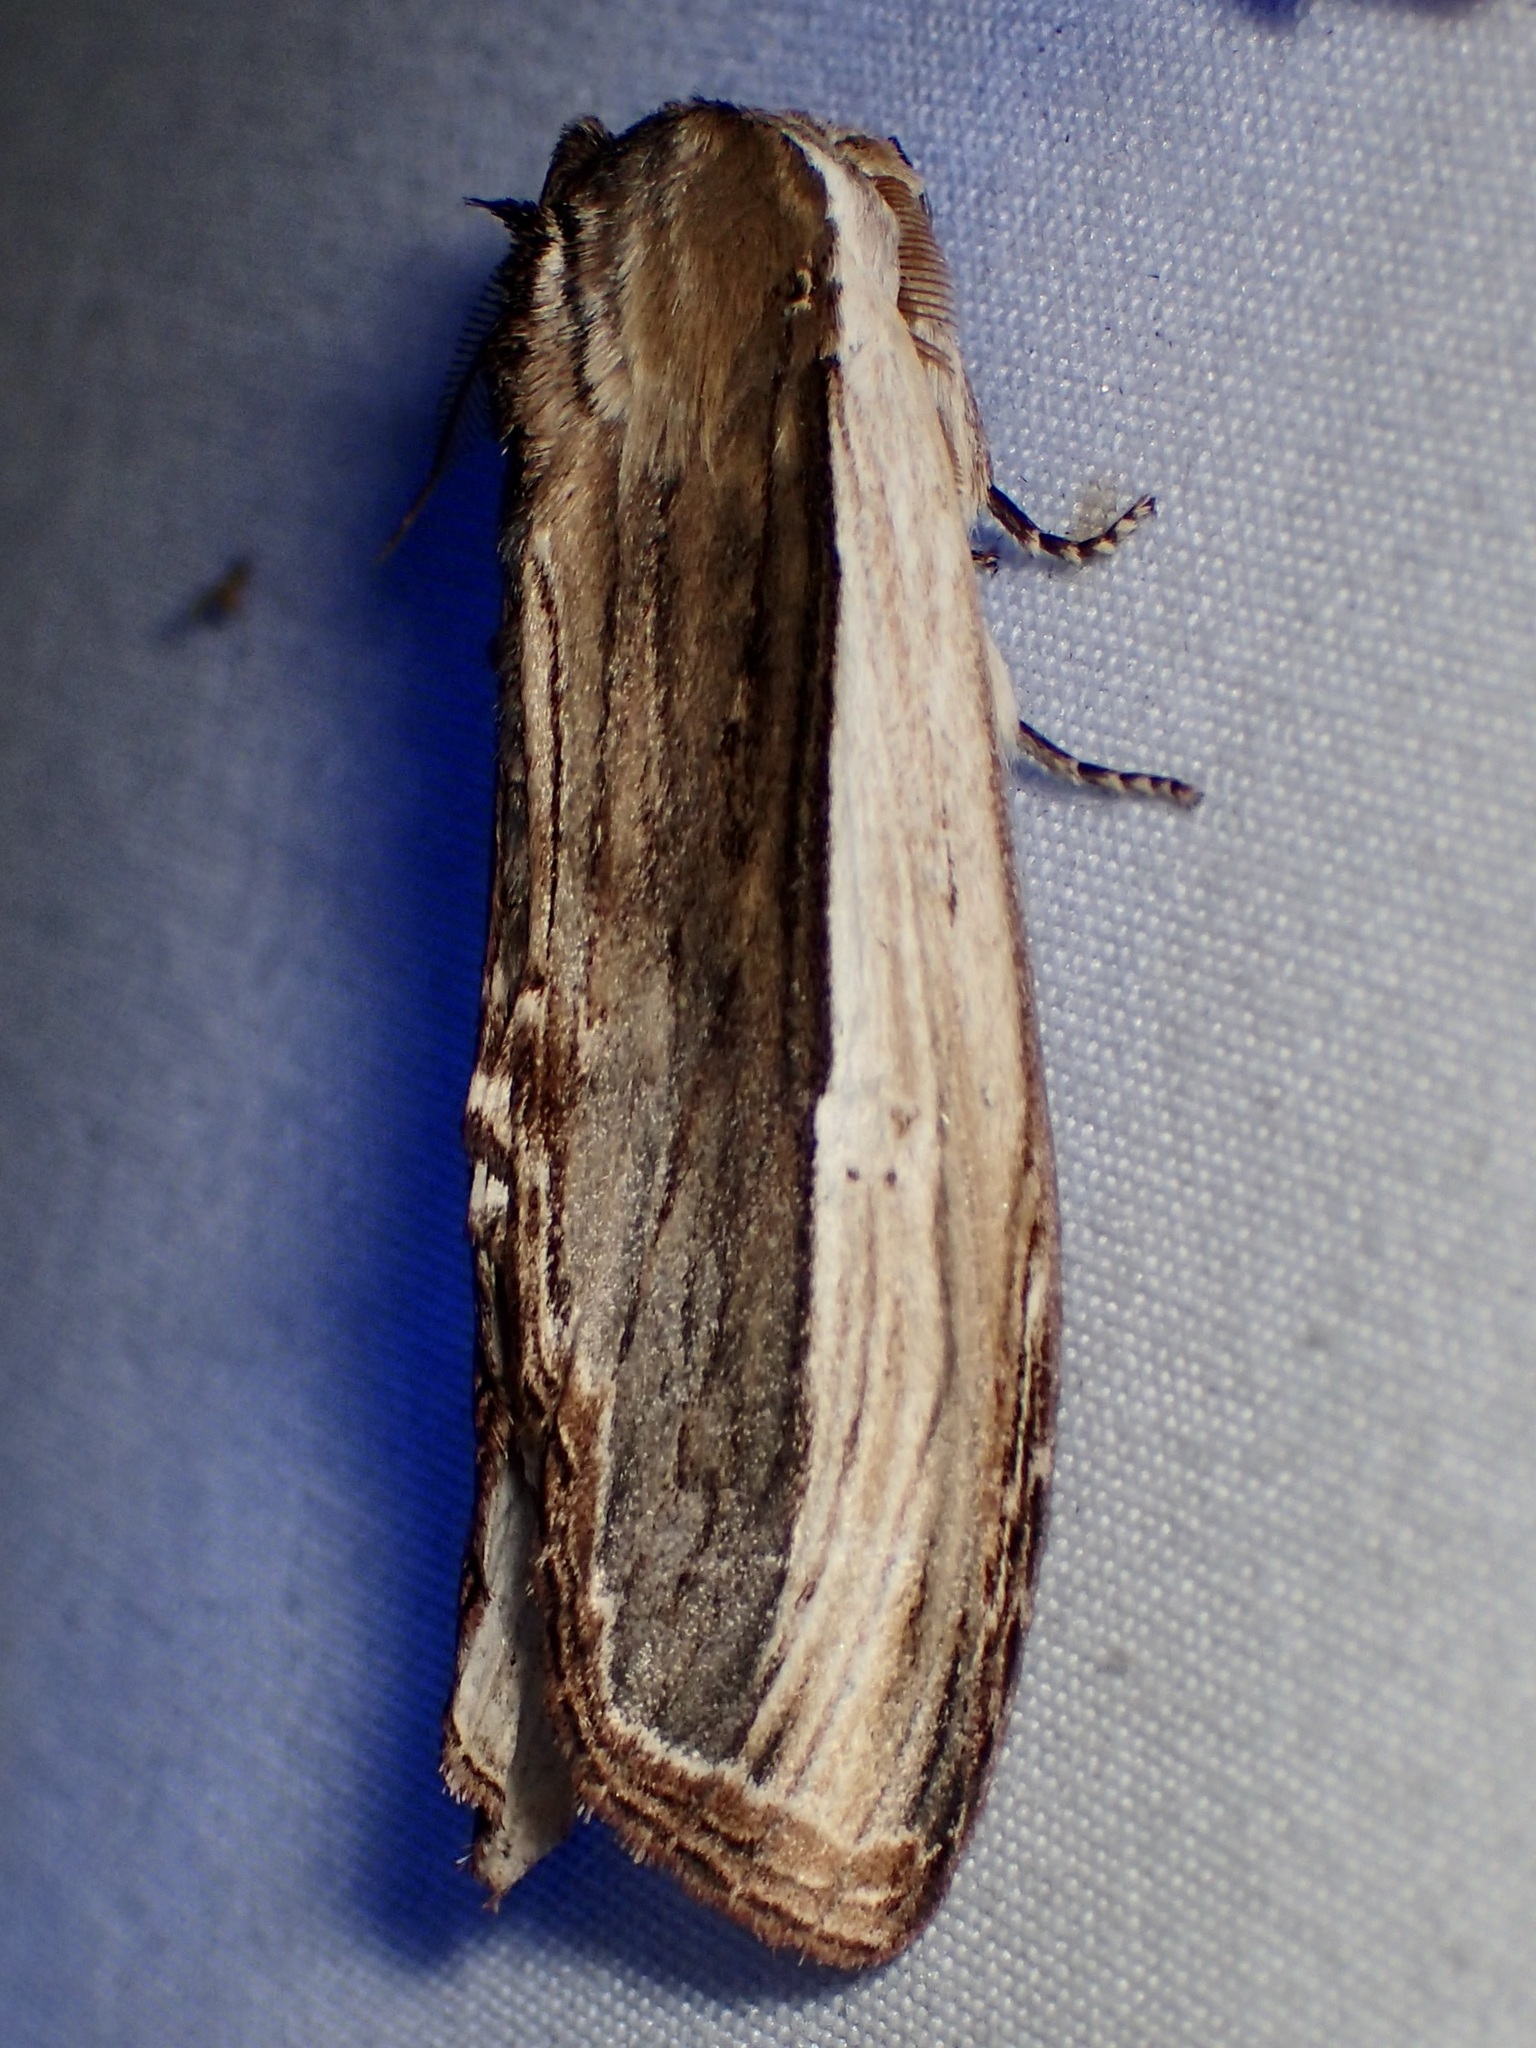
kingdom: Animalia
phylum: Arthropoda
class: Insecta
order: Lepidoptera
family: Notodontidae
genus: Truncaptera
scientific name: Truncaptera inopinata
